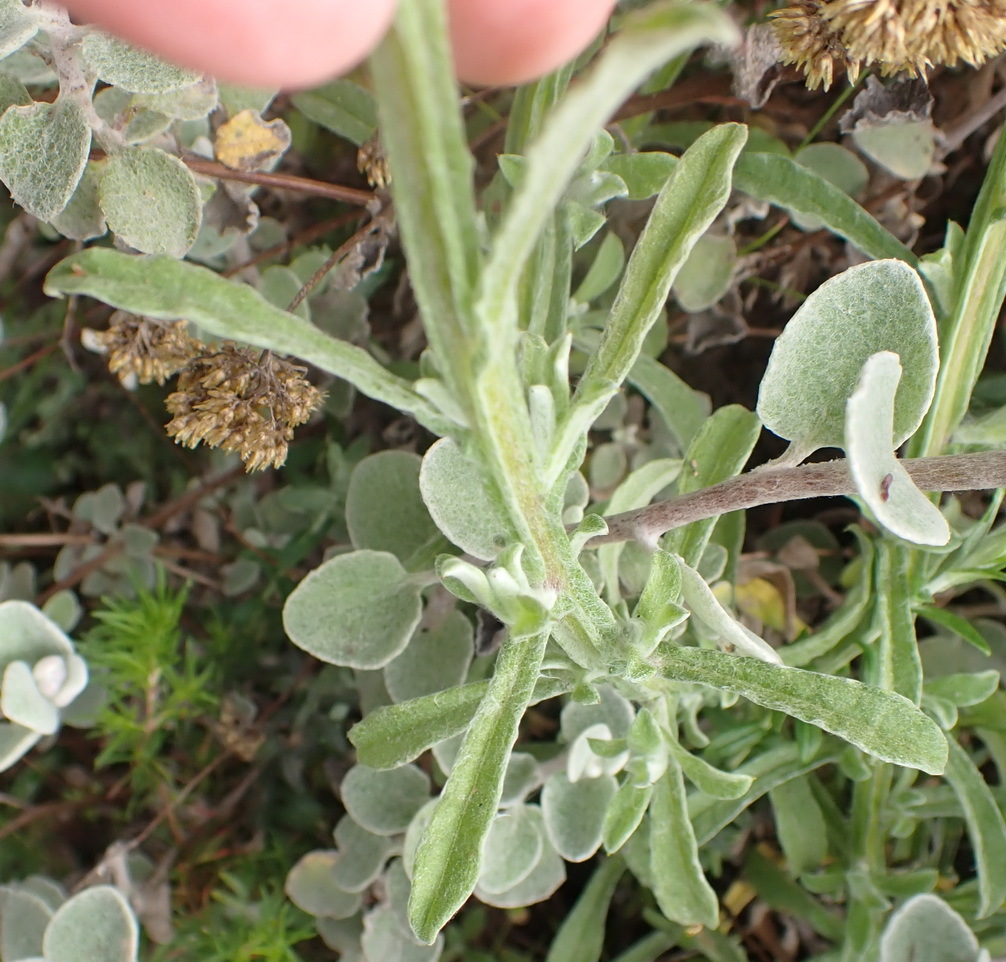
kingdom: Plantae
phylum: Tracheophyta
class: Magnoliopsida
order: Asterales
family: Asteraceae
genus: Helichrysum
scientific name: Helichrysum odoratissimum
